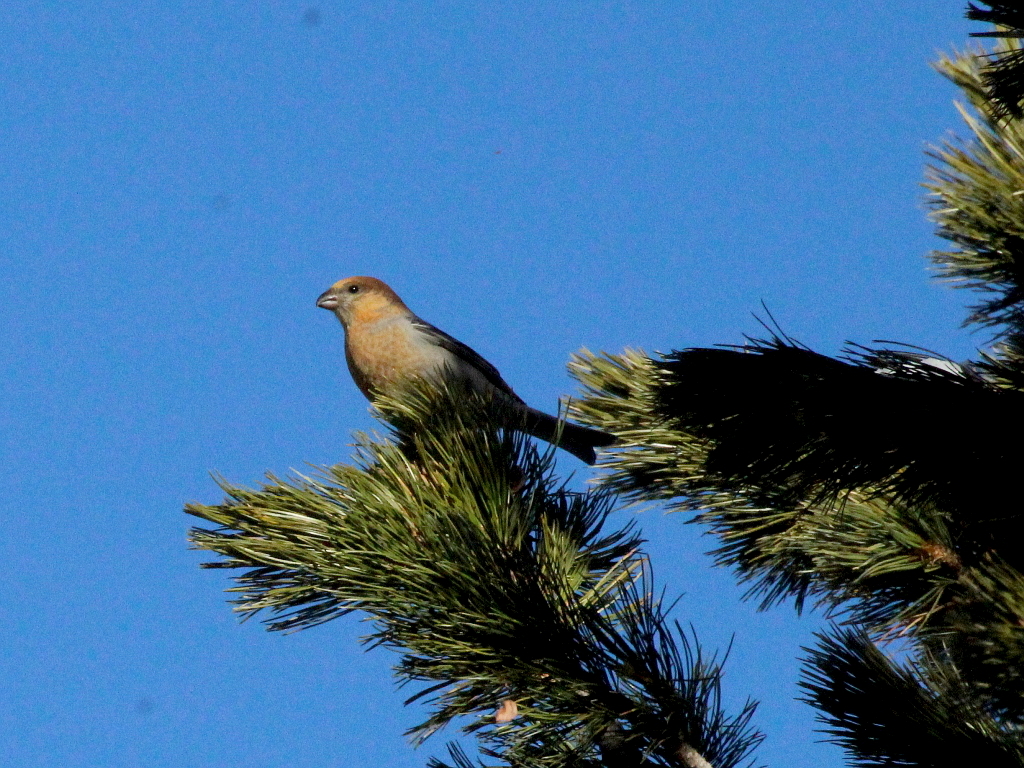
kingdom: Animalia
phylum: Chordata
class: Aves
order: Passeriformes
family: Fringillidae
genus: Pinicola
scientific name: Pinicola enucleator
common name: Pine grosbeak
